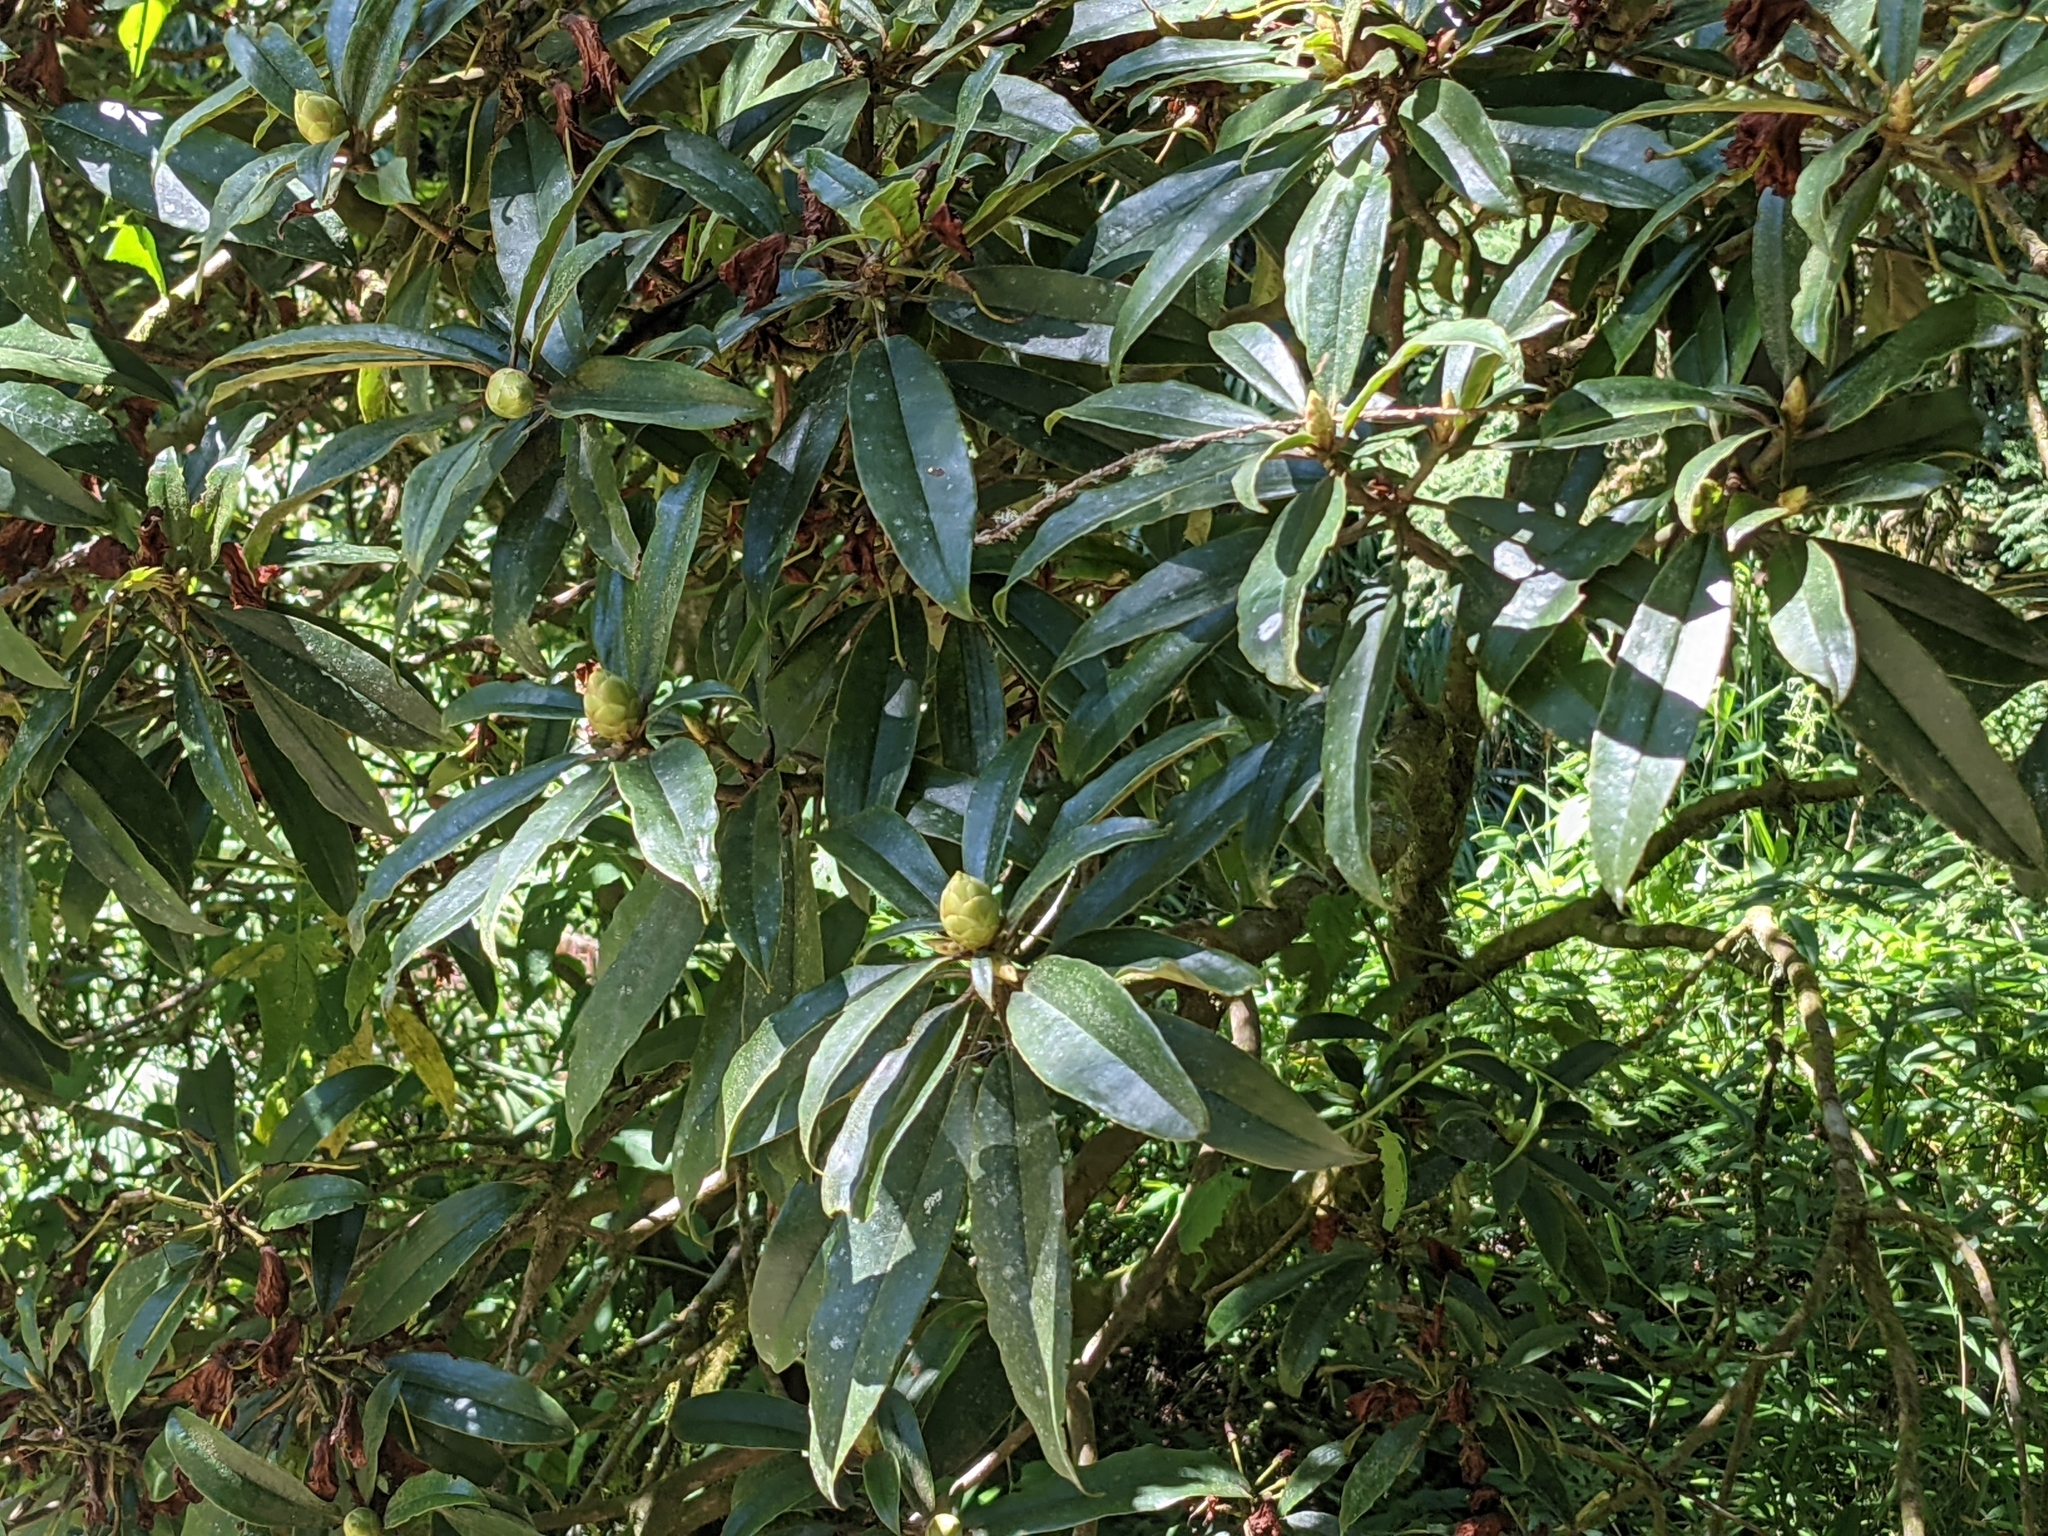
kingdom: Plantae
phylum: Tracheophyta
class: Magnoliopsida
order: Ericales
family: Ericaceae
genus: Rhododendron
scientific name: Rhododendron formosanum
